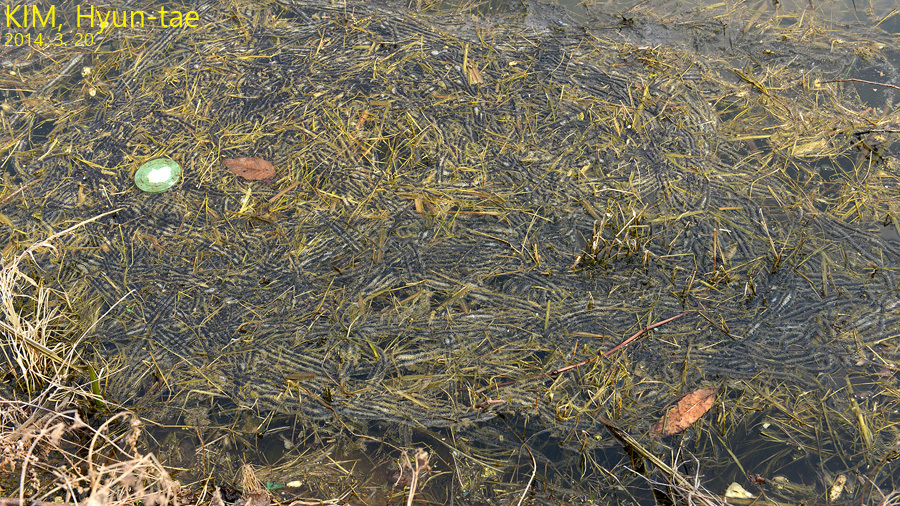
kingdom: Animalia
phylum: Chordata
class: Amphibia
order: Anura
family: Bufonidae
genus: Bufo
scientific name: Bufo gargarizans
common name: Asiatic toad
